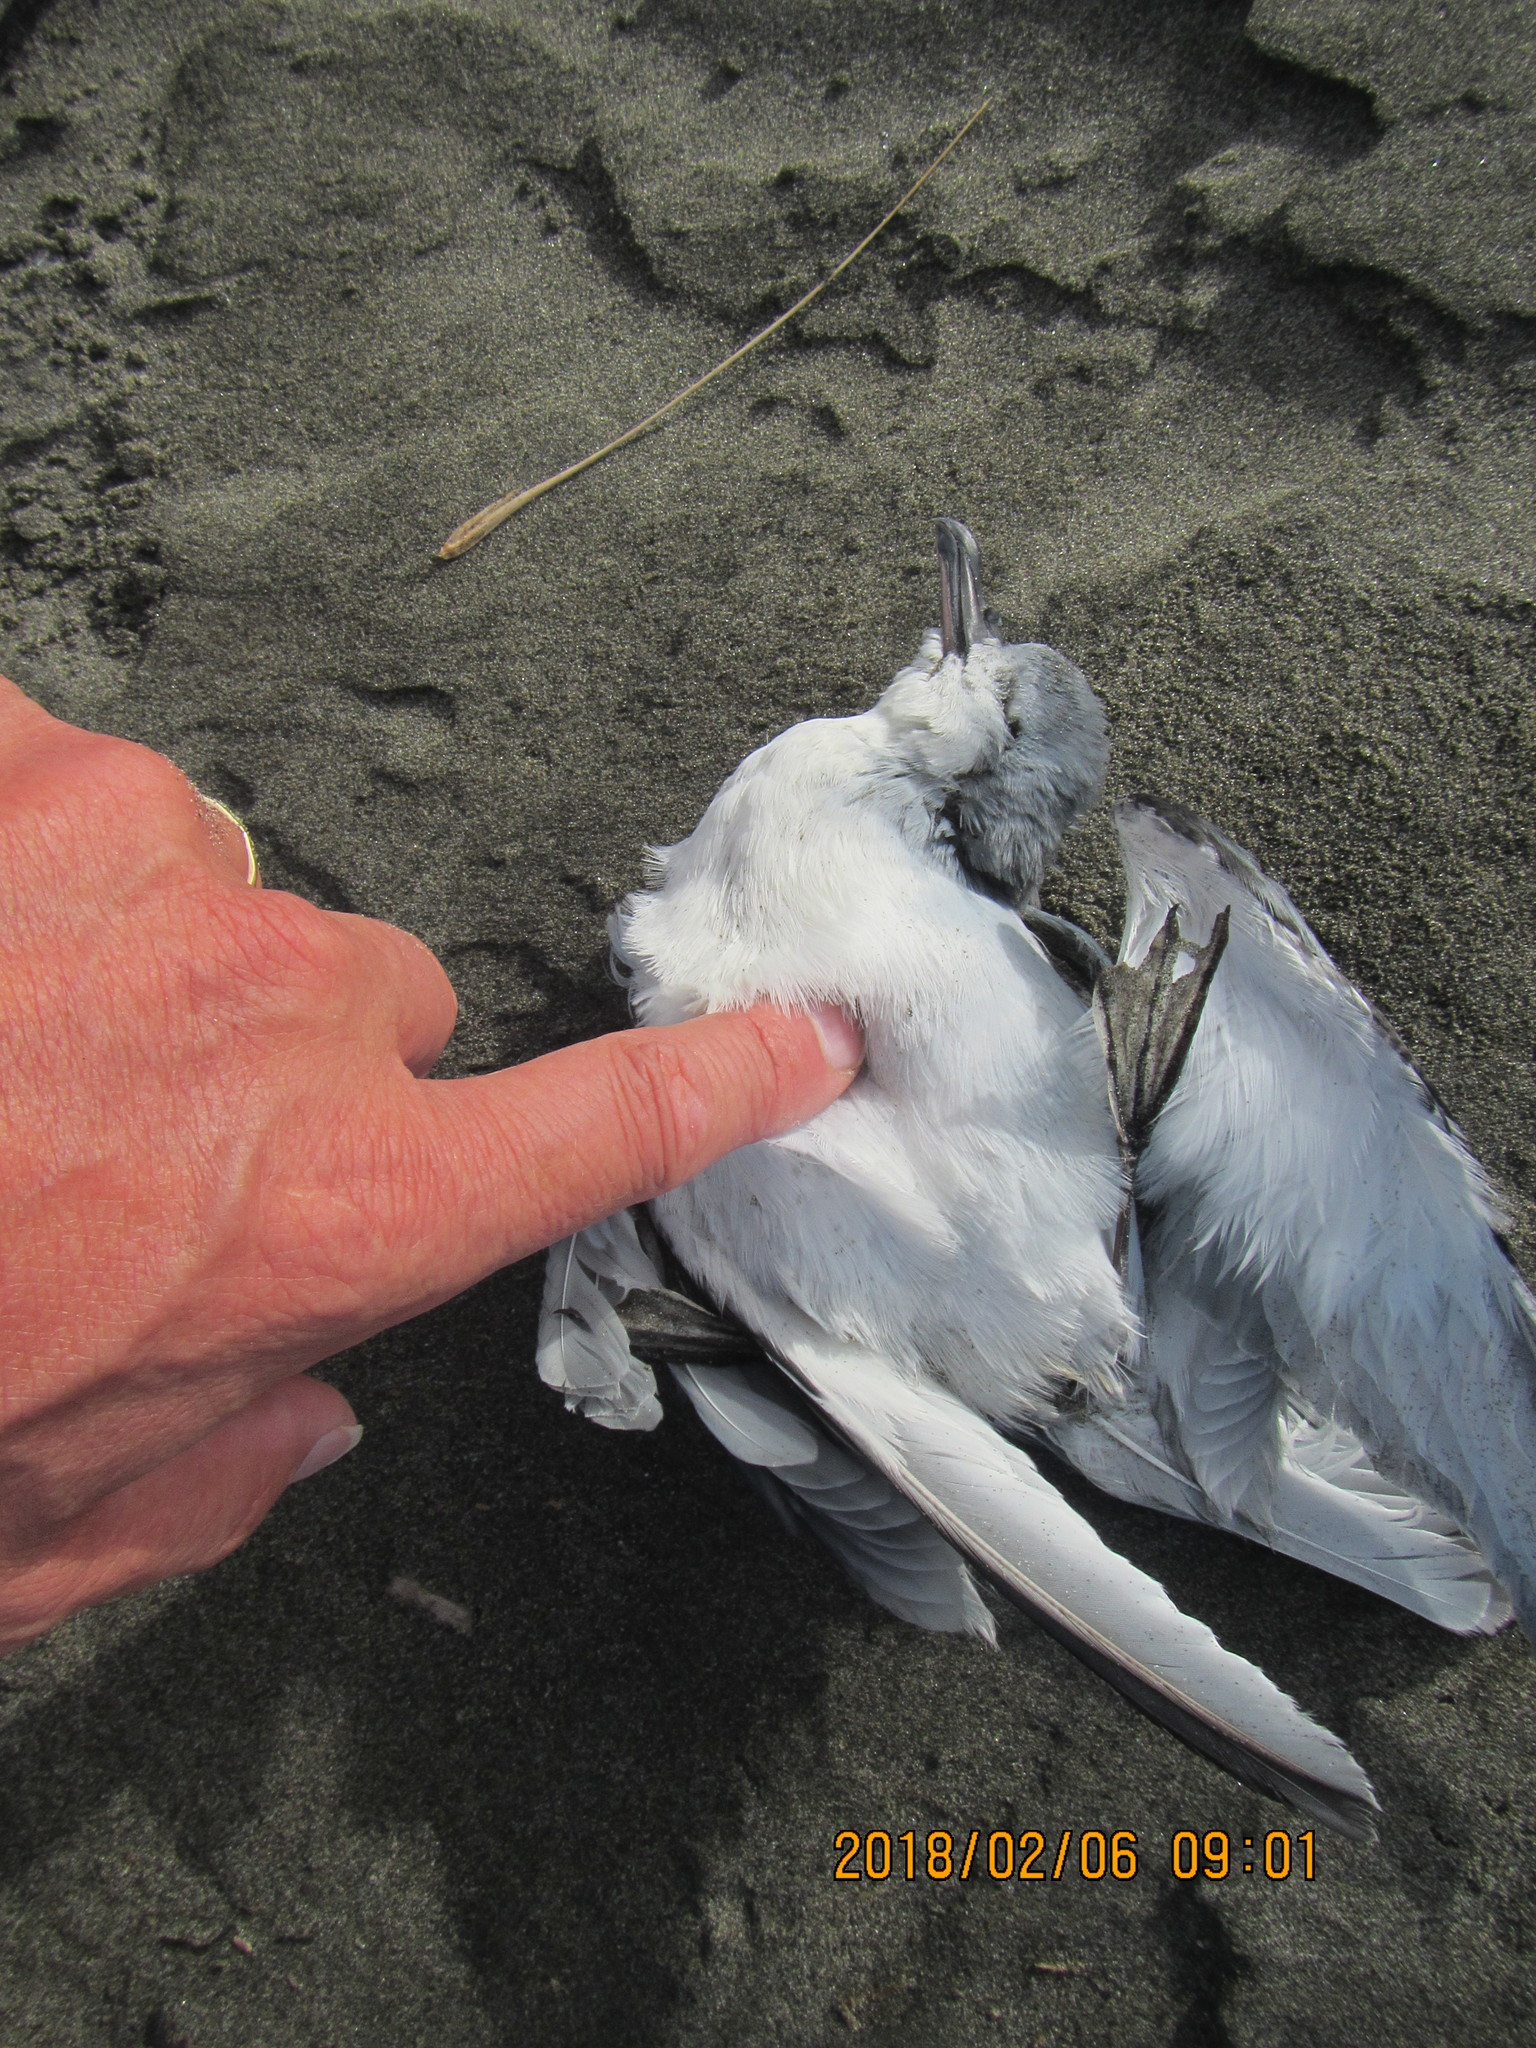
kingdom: Animalia
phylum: Chordata
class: Aves
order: Procellariiformes
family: Procellariidae
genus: Pachyptila
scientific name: Pachyptila turtur
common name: Fairy prion
